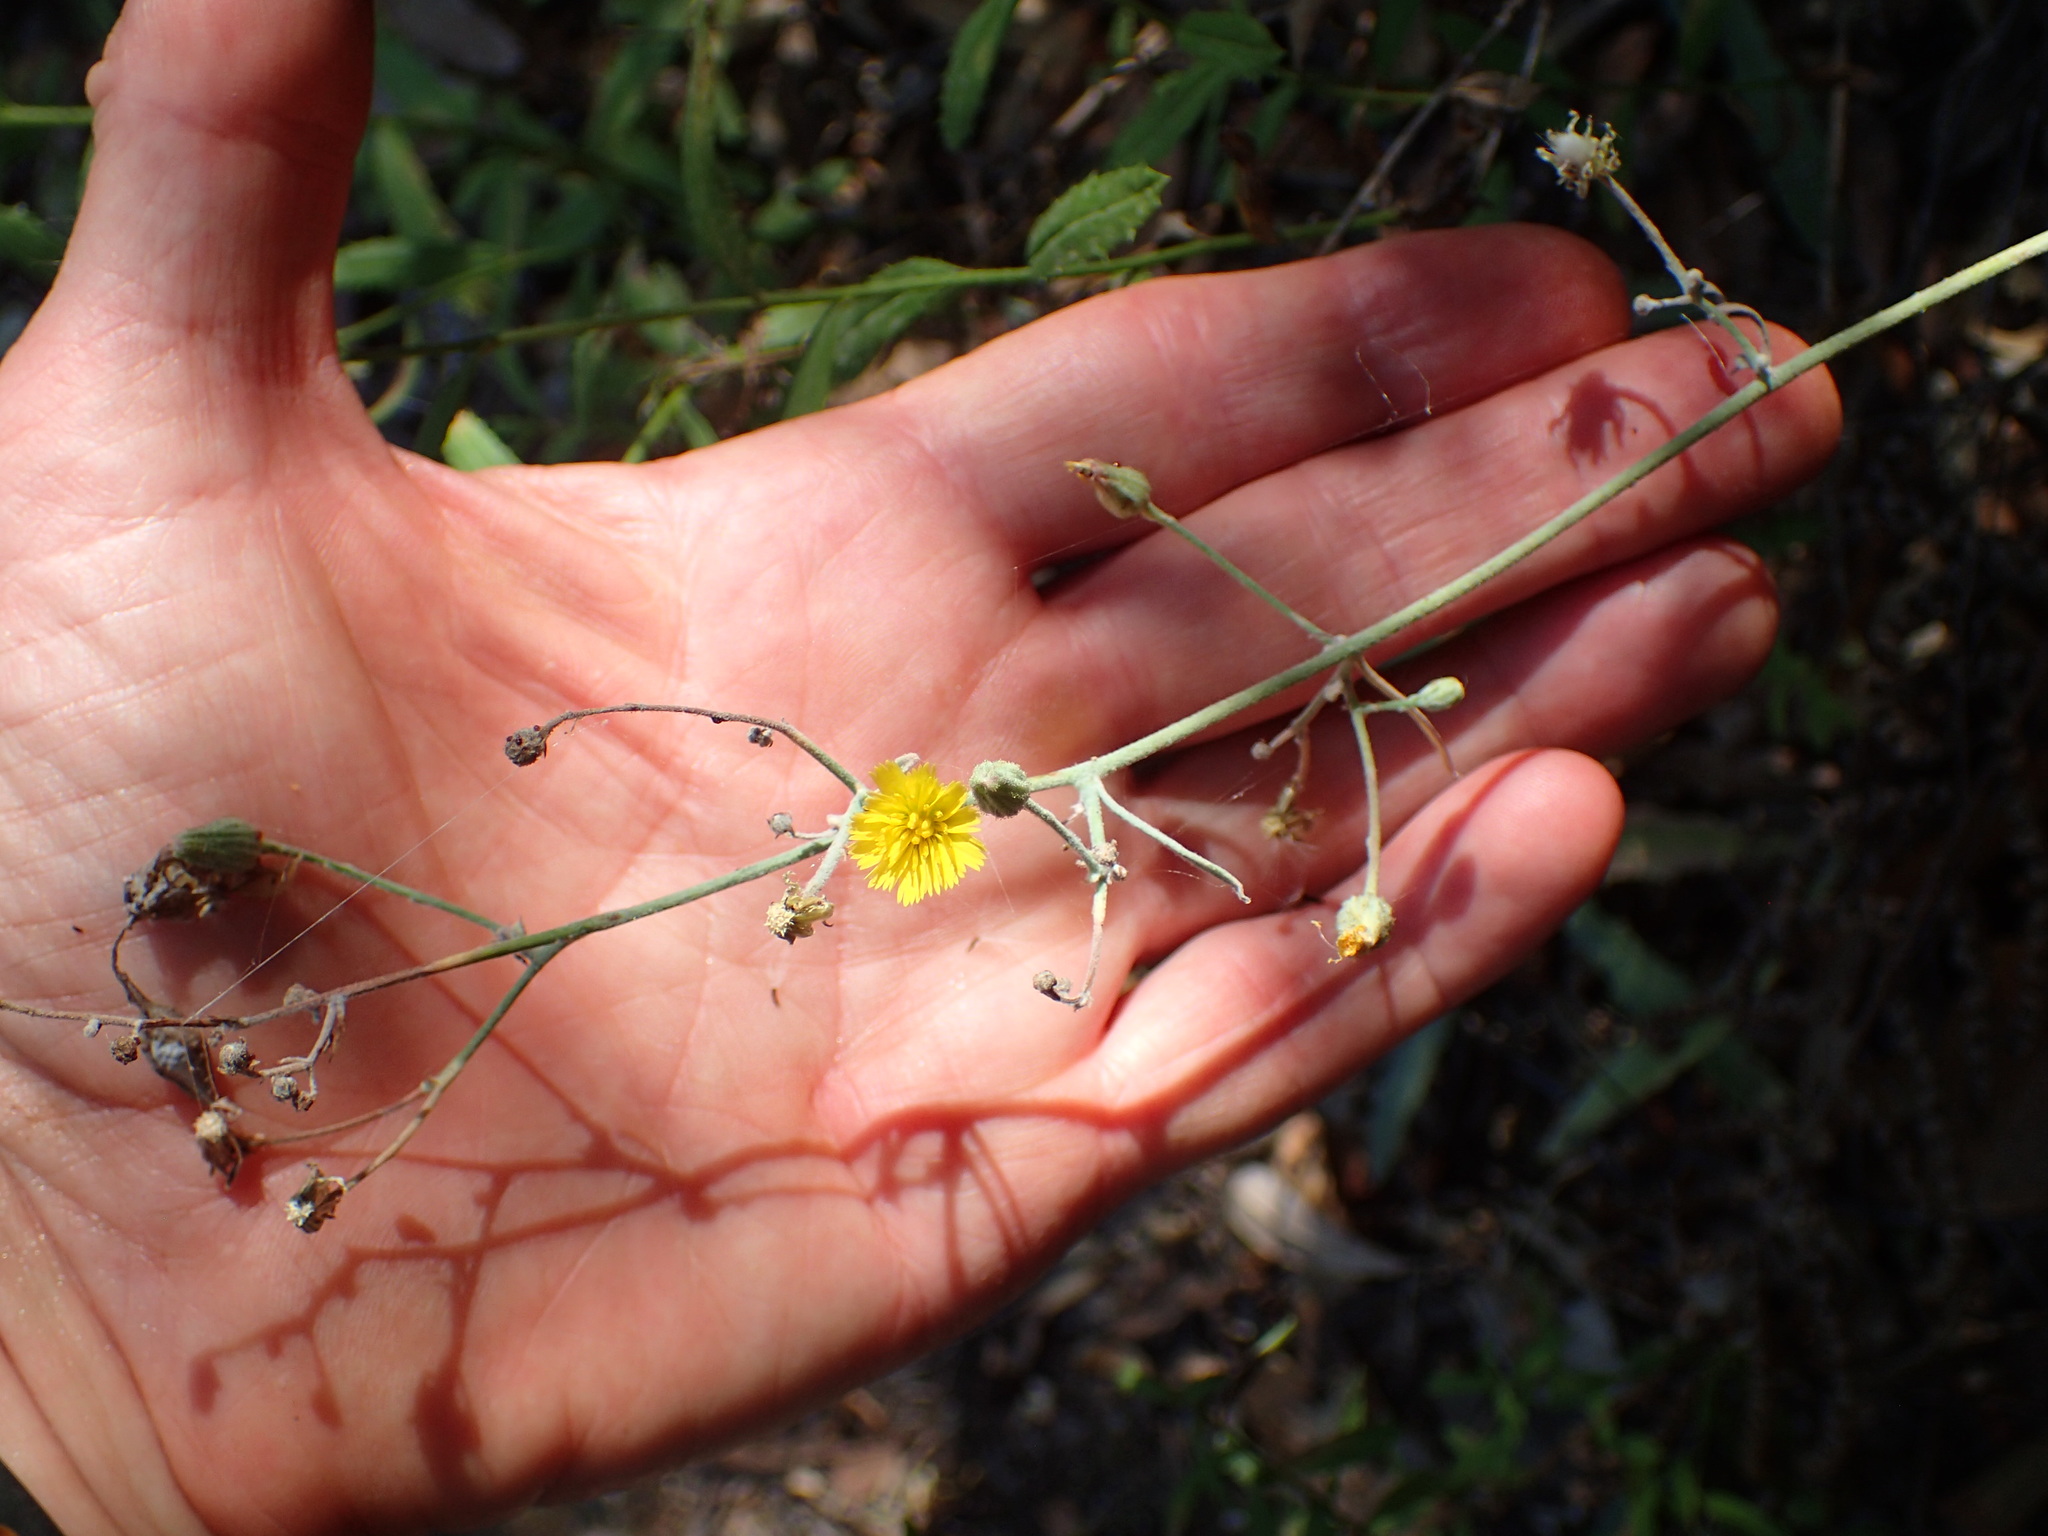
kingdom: Plantae
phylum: Tracheophyta
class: Magnoliopsida
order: Asterales
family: Asteraceae
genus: Hieracium
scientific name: Hieracium argutum
